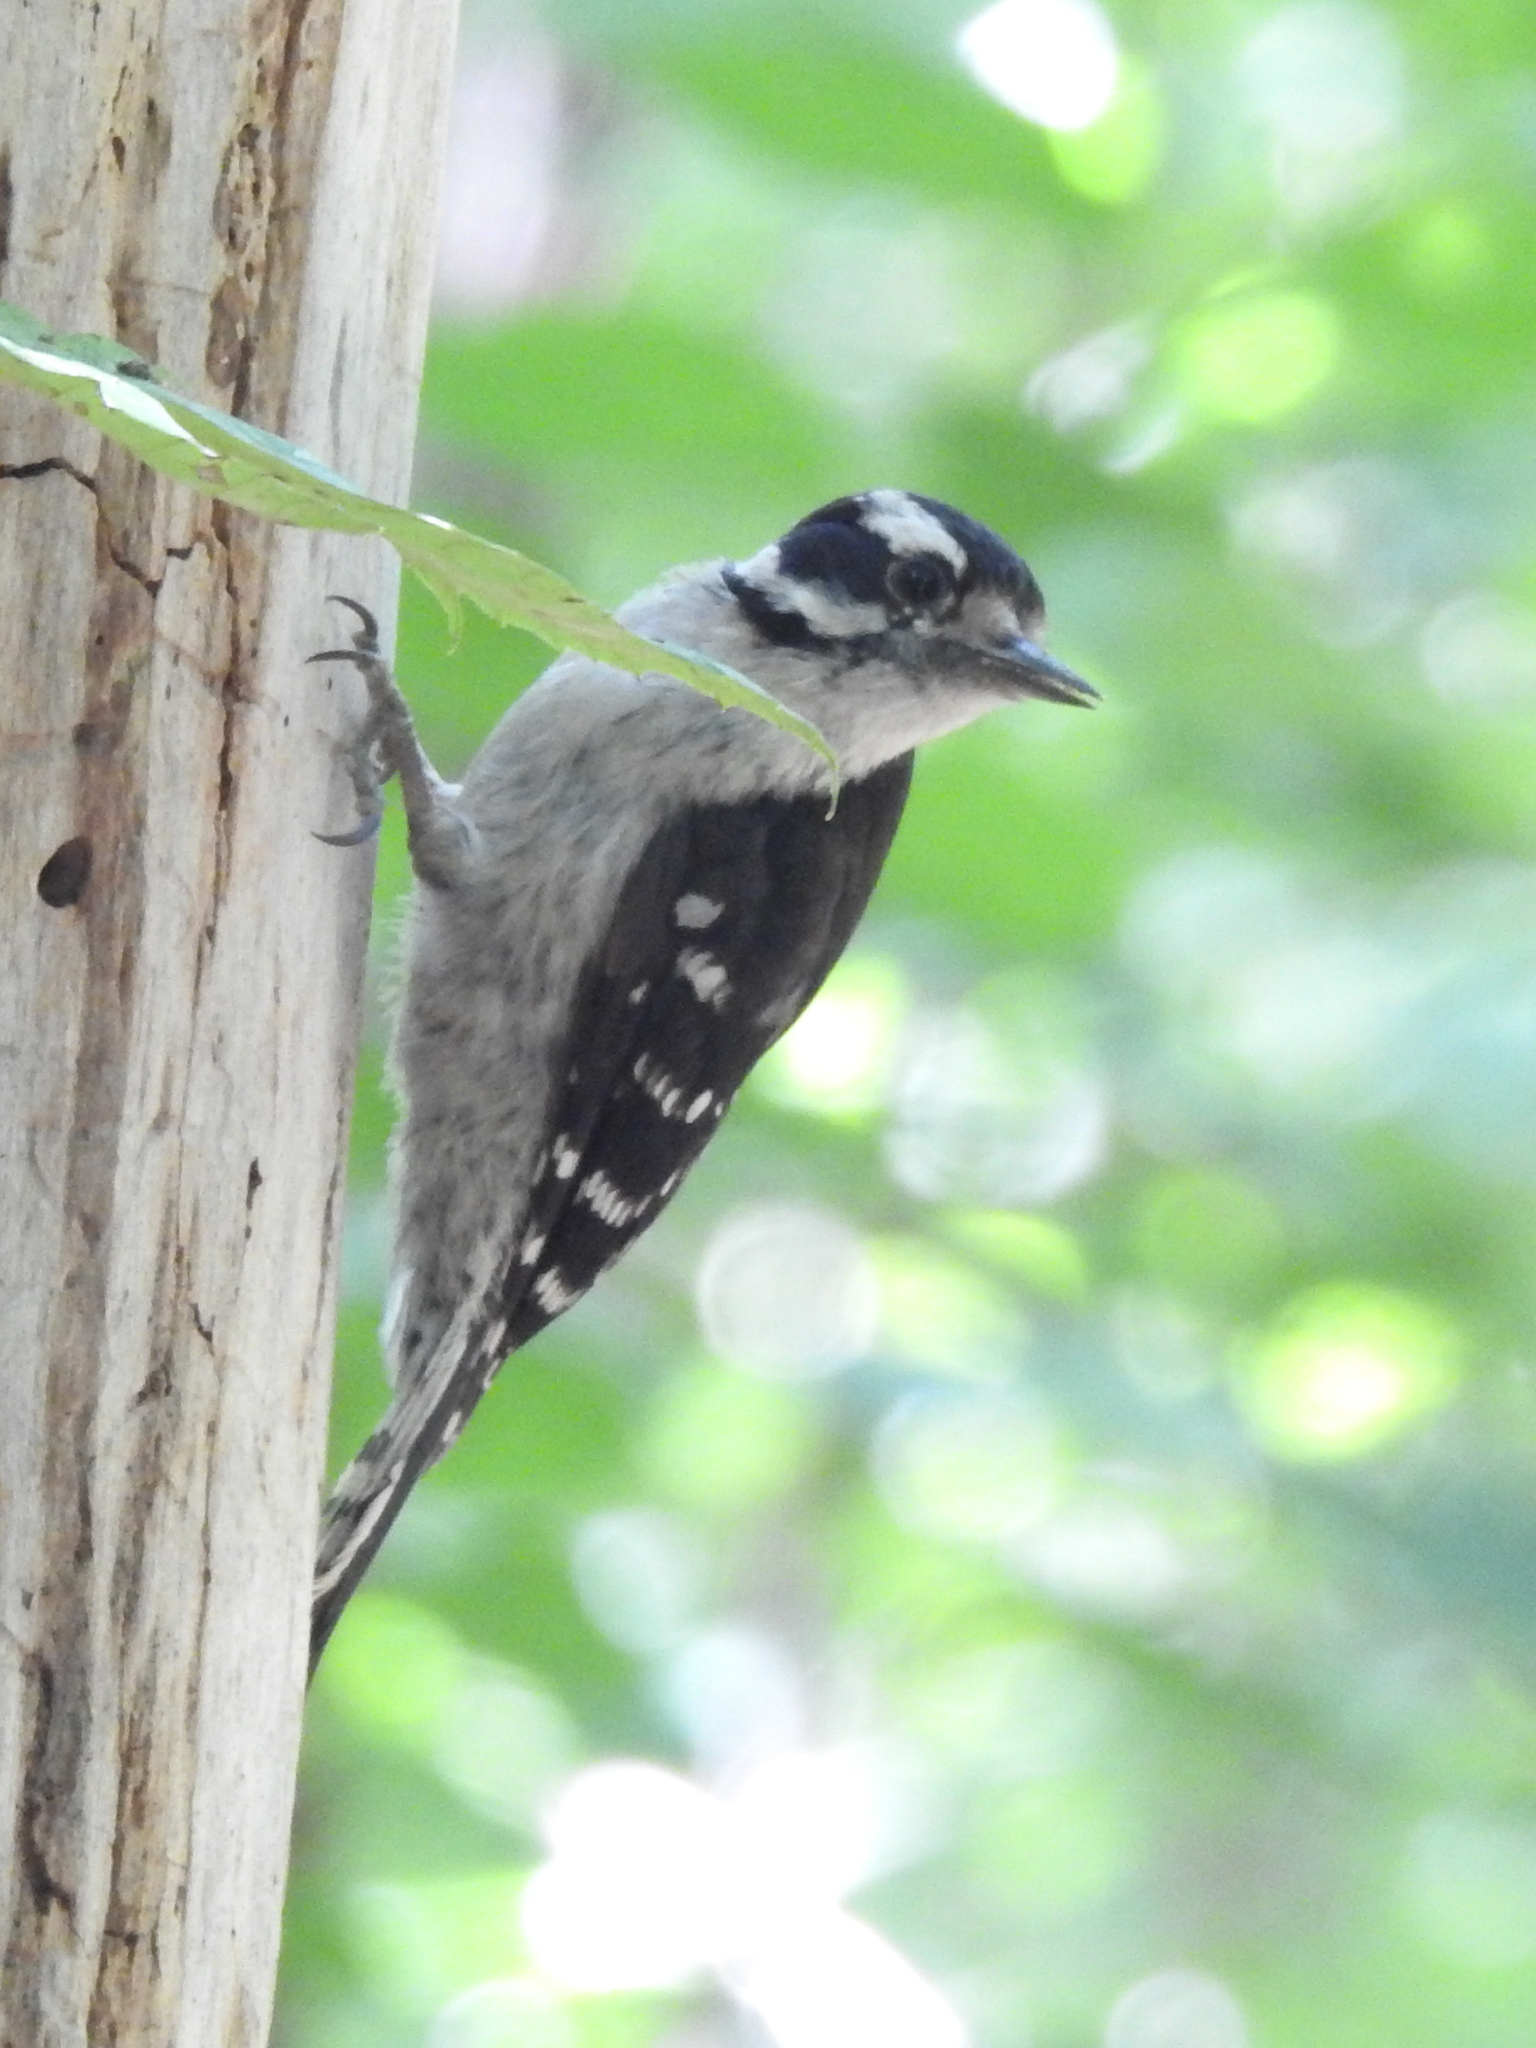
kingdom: Animalia
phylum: Chordata
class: Aves
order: Piciformes
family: Picidae
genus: Dryobates
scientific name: Dryobates pubescens
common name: Downy woodpecker
